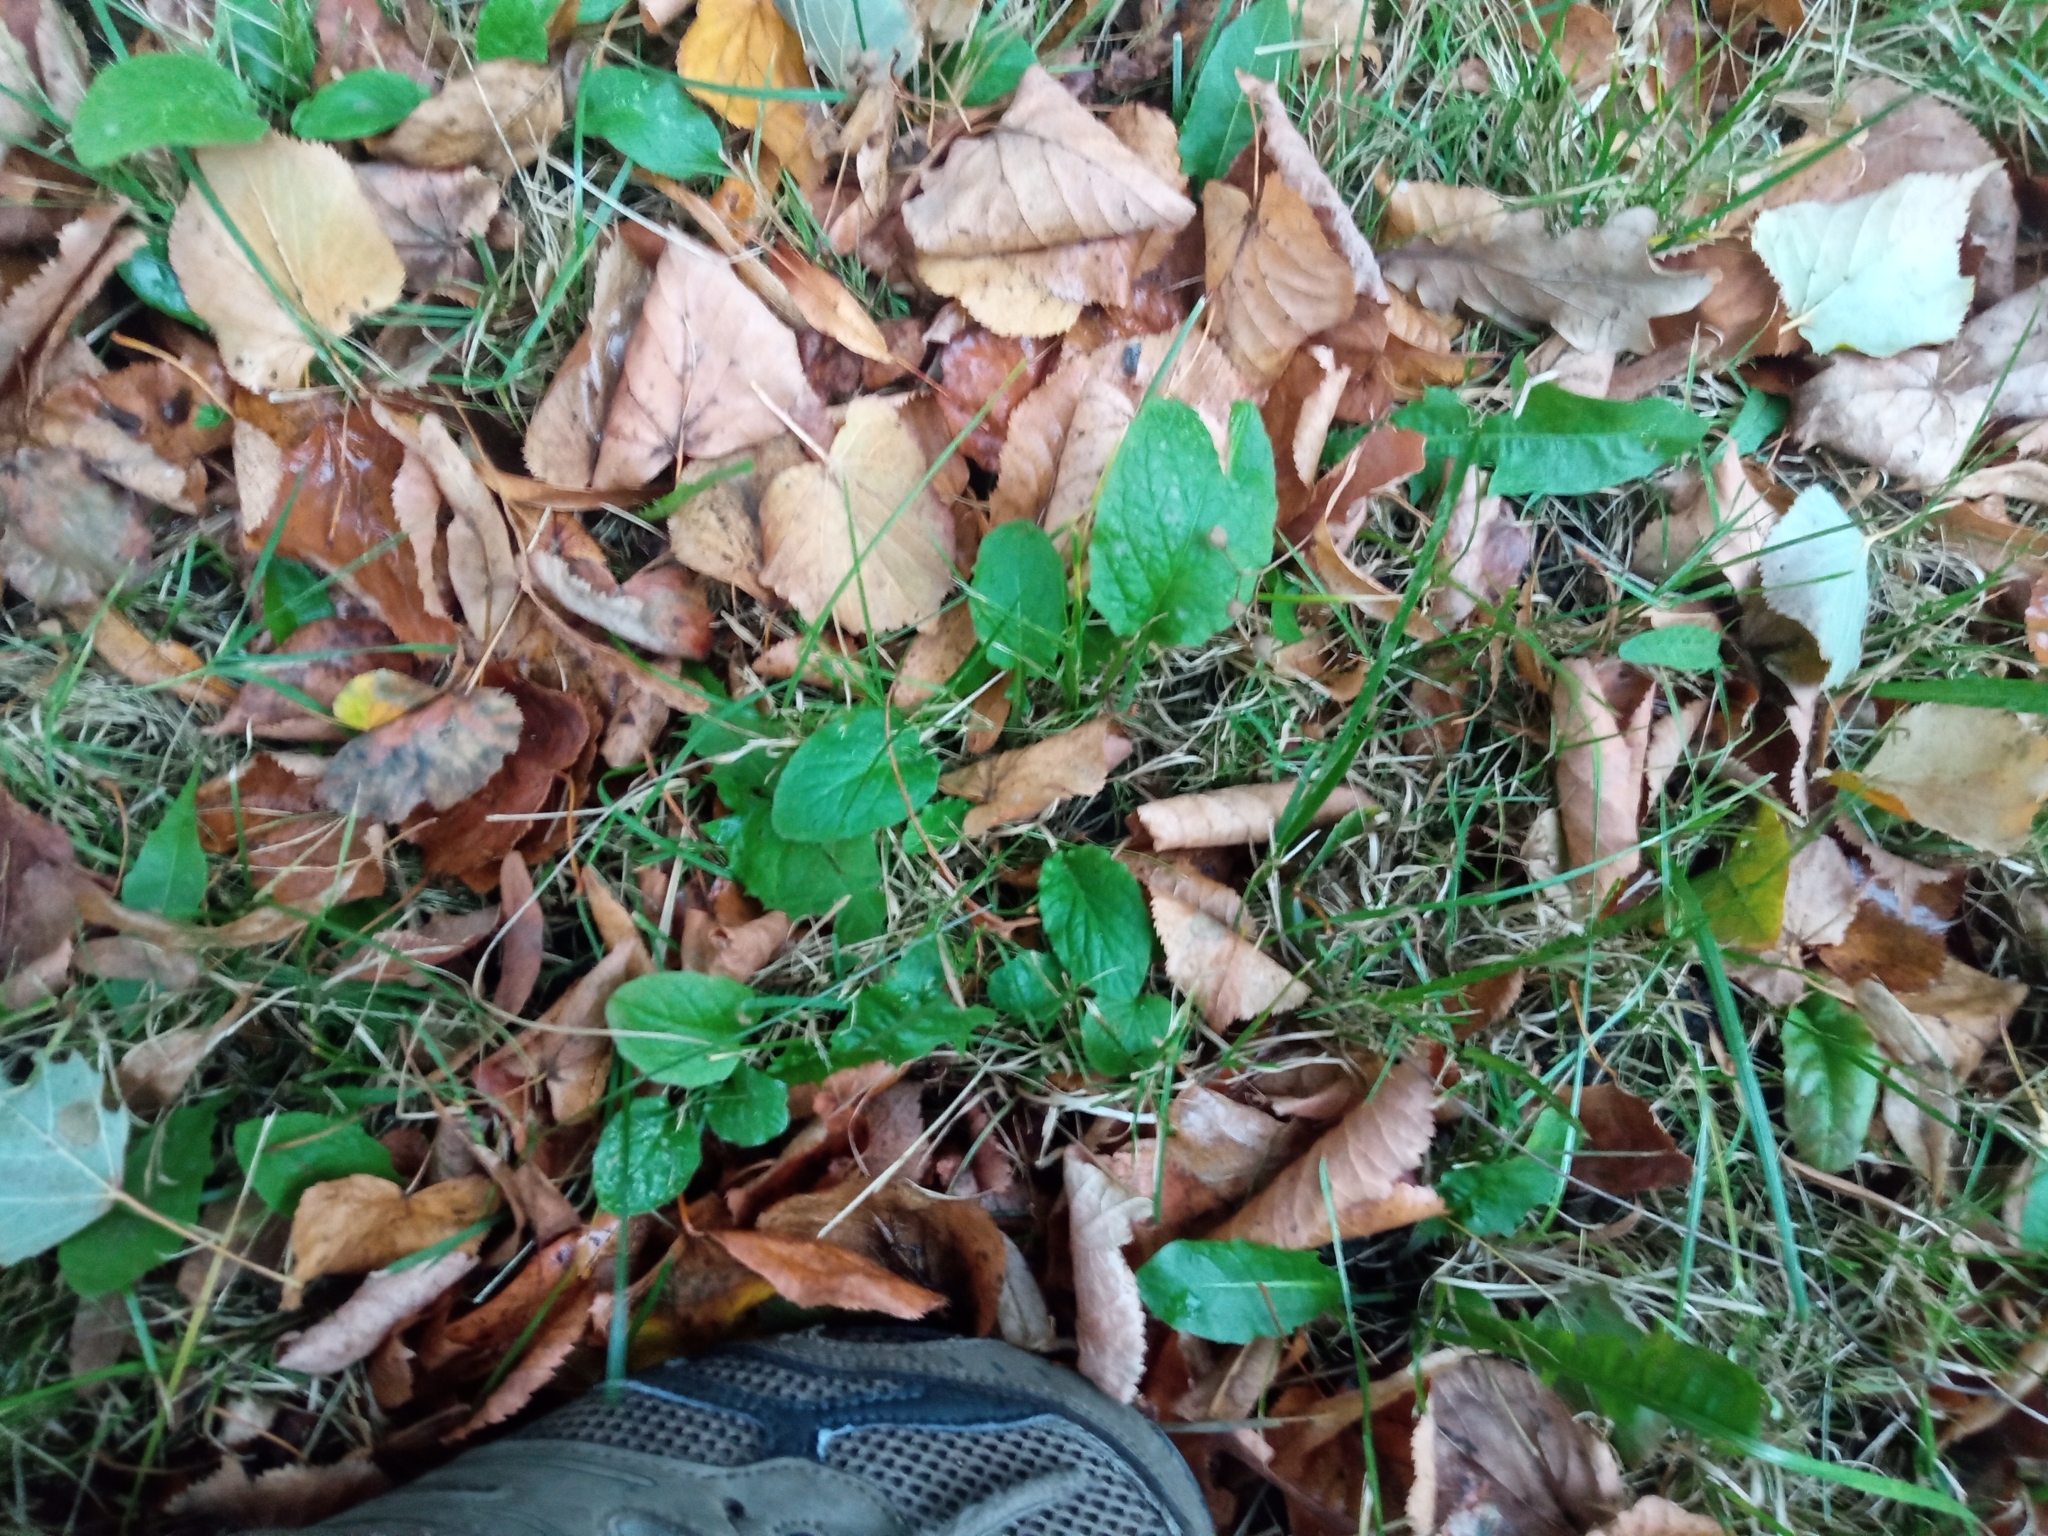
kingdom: Plantae
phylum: Tracheophyta
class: Magnoliopsida
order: Asterales
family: Asteraceae
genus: Lapsana
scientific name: Lapsana communis
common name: Nipplewort
